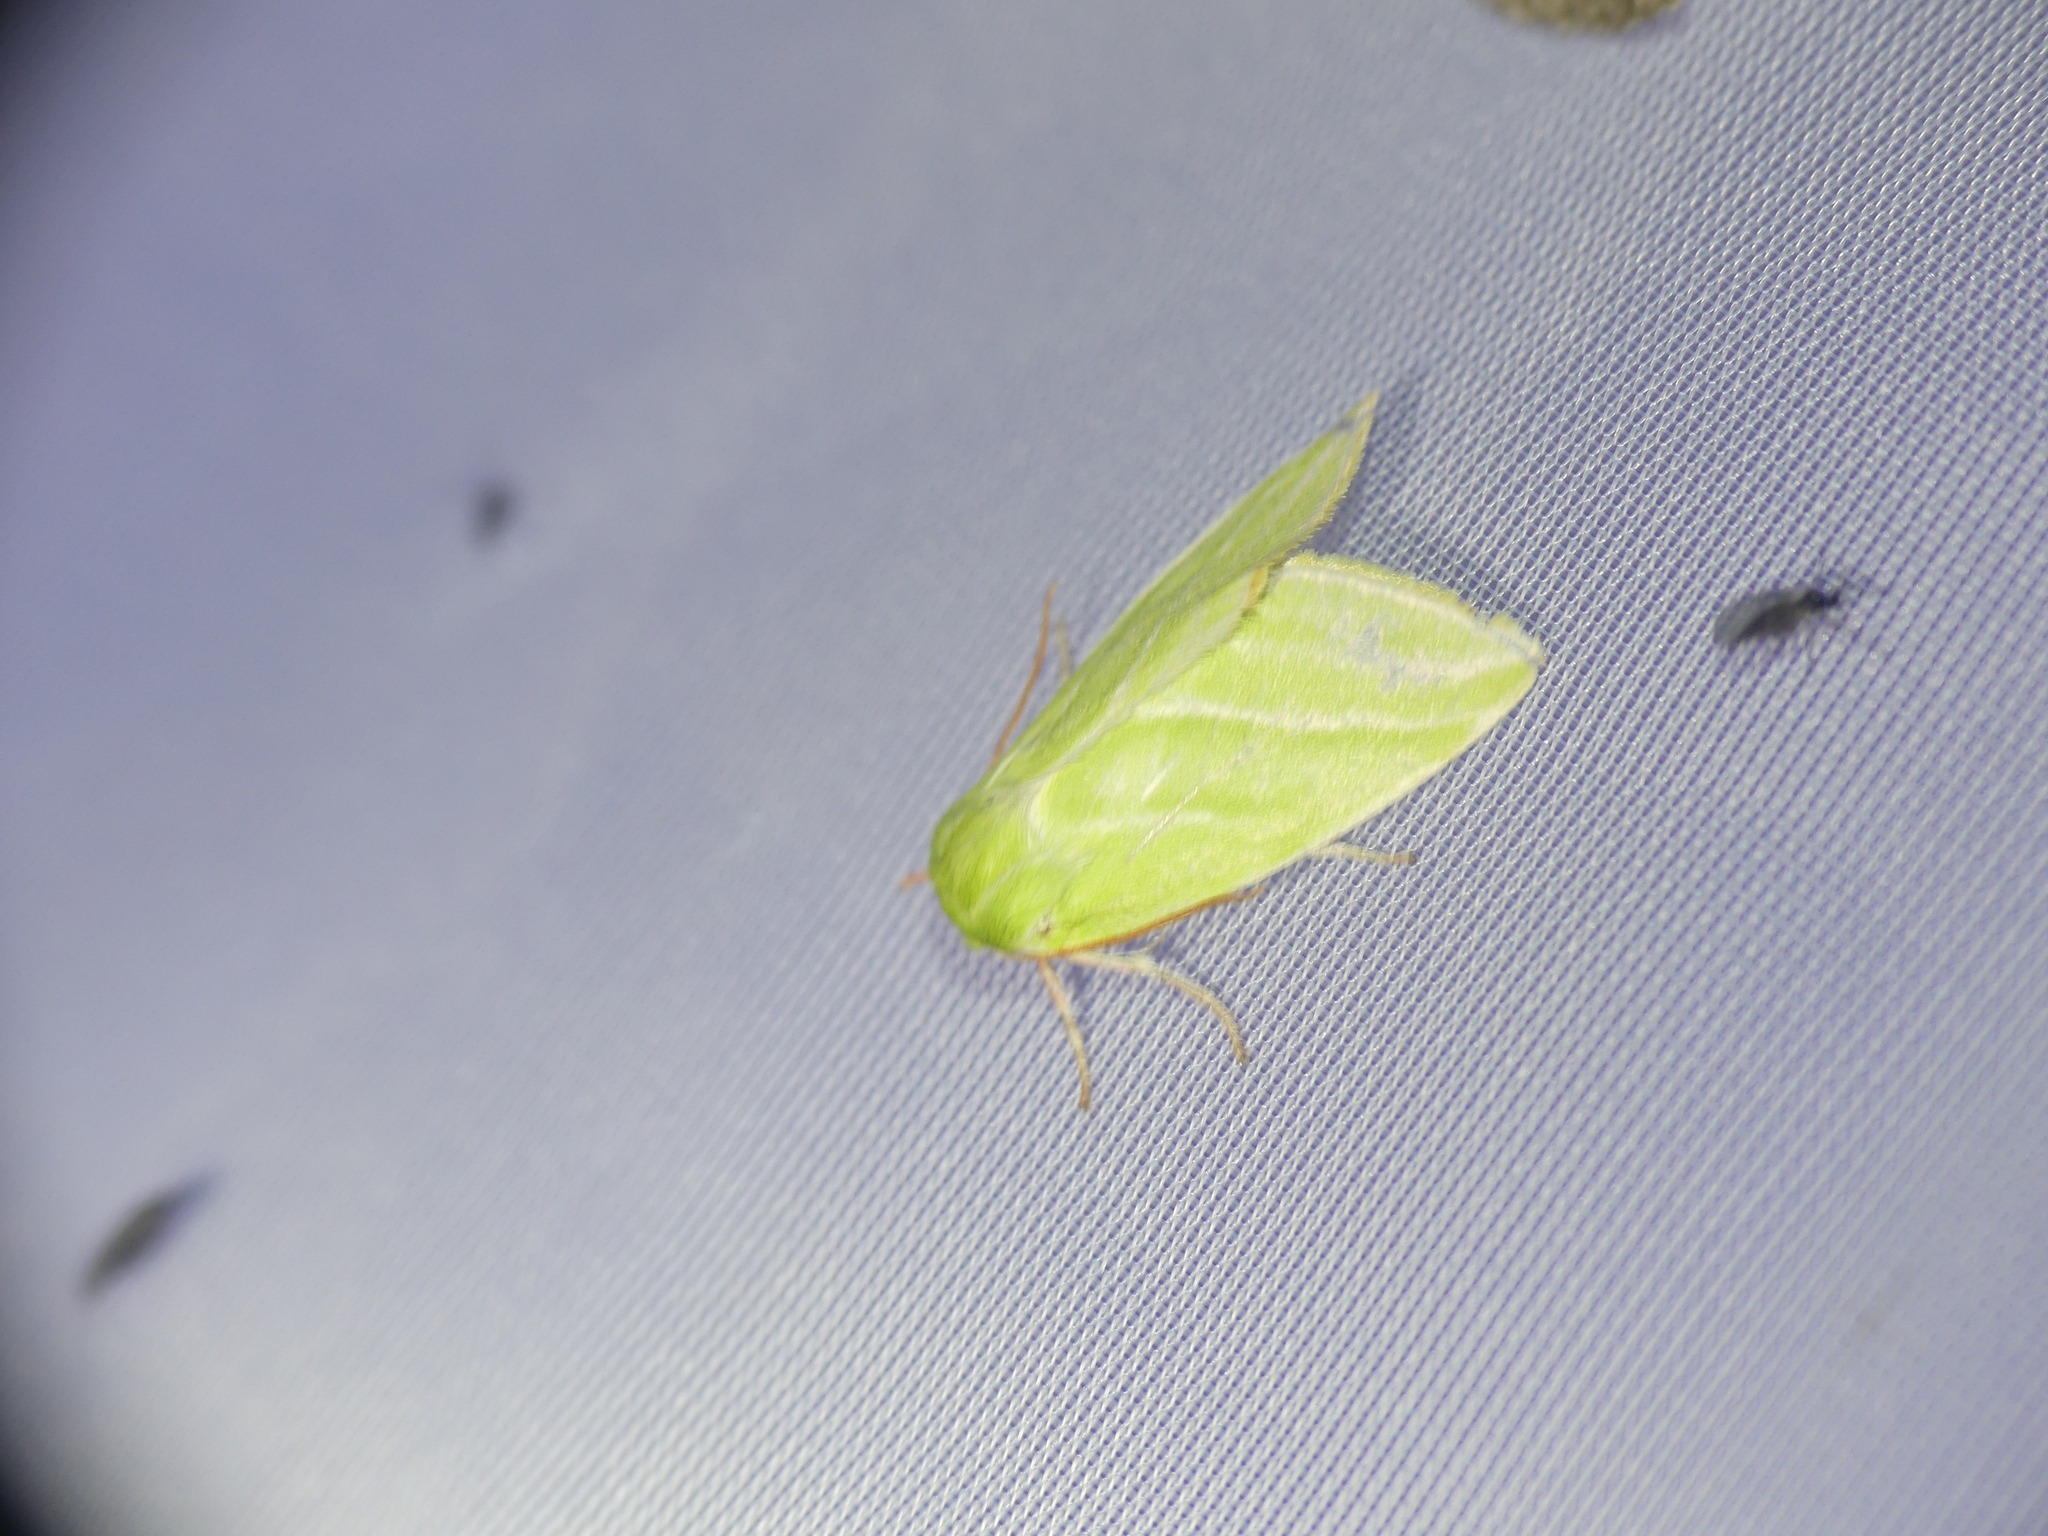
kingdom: Animalia
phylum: Arthropoda
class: Insecta
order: Lepidoptera
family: Nolidae
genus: Pseudoips
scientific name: Pseudoips prasinana
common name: Green silver-lines
